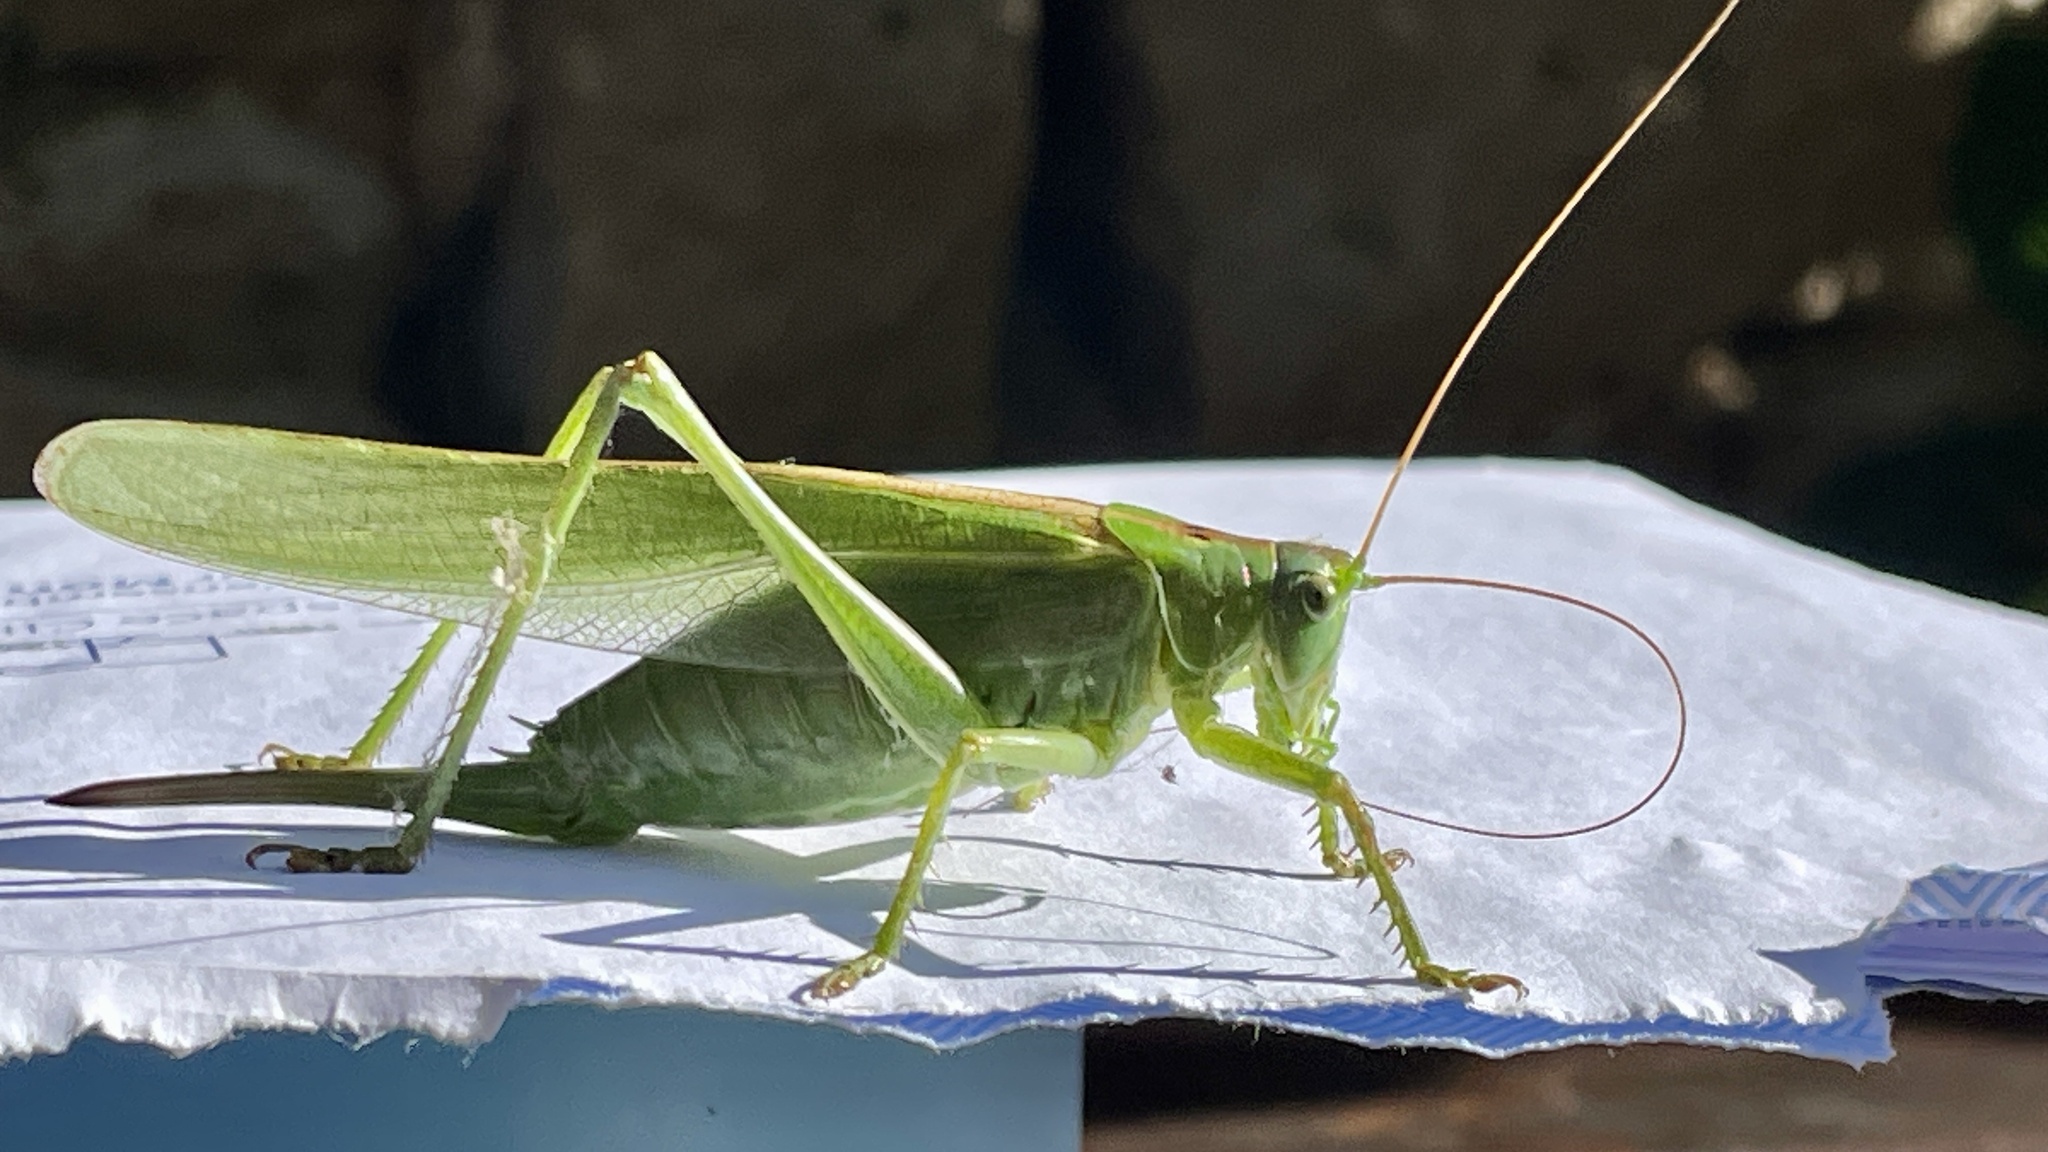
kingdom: Animalia
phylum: Arthropoda
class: Insecta
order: Orthoptera
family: Tettigoniidae
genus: Tettigonia
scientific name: Tettigonia viridissima
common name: Great green bush-cricket
